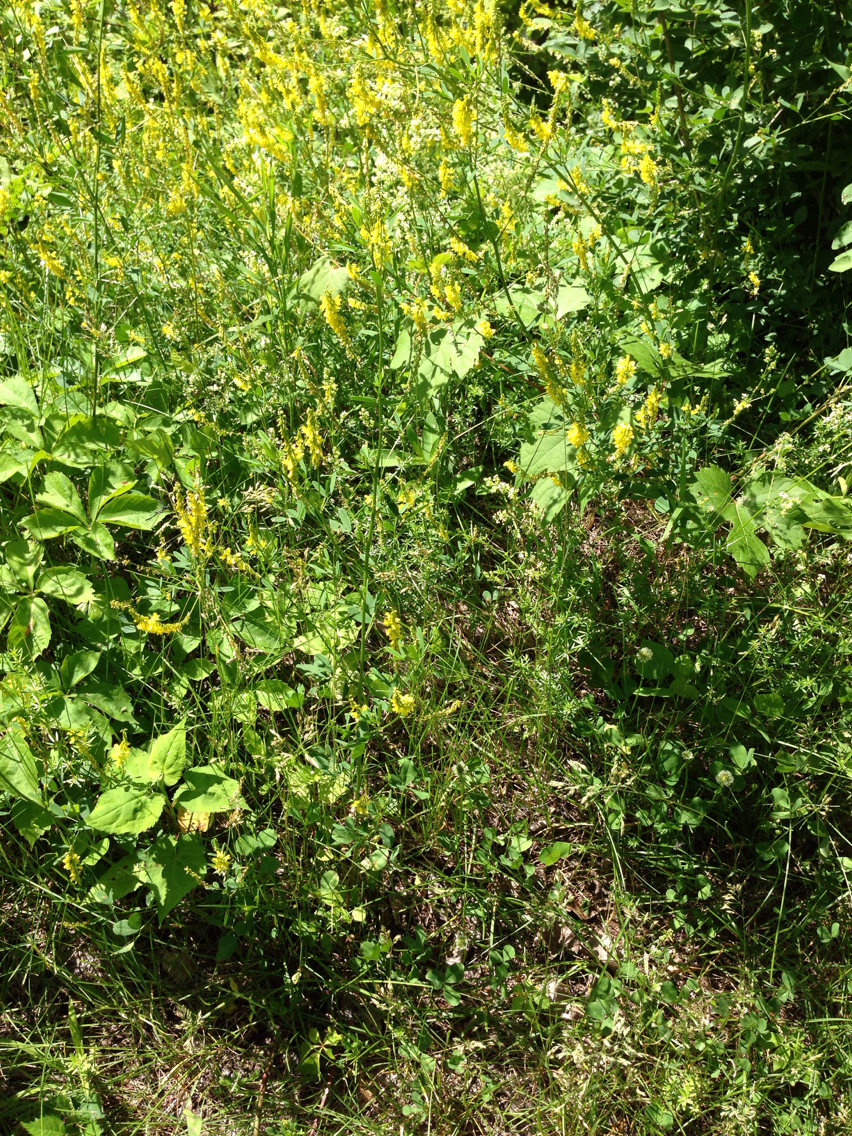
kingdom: Plantae
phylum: Tracheophyta
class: Magnoliopsida
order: Fabales
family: Fabaceae
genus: Melilotus
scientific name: Melilotus officinalis
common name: Sweetclover
